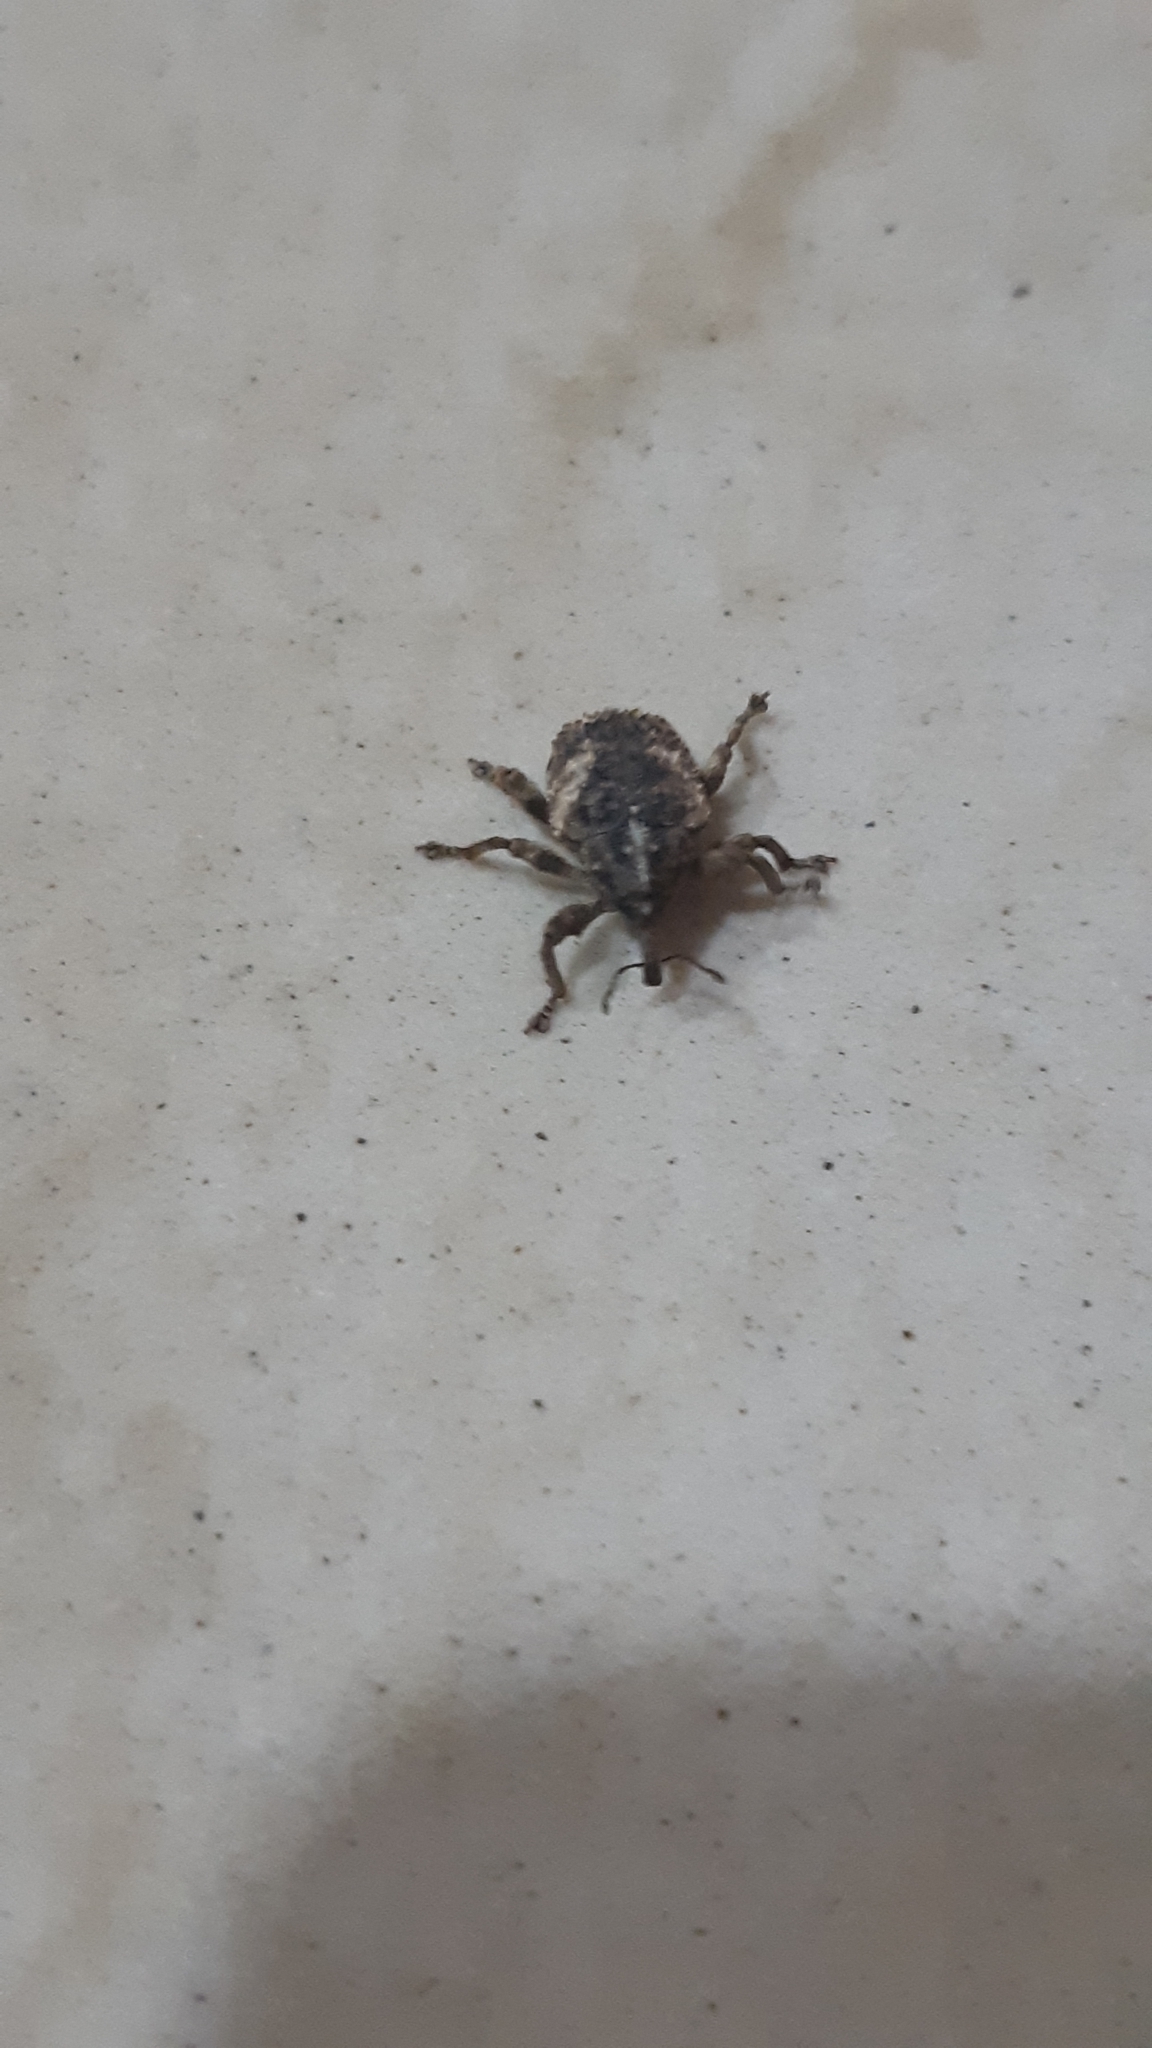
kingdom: Animalia
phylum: Arthropoda
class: Insecta
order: Coleoptera
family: Curculionidae
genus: Sternochetus
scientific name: Sternochetus mangiferae
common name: Mango seed weevil
